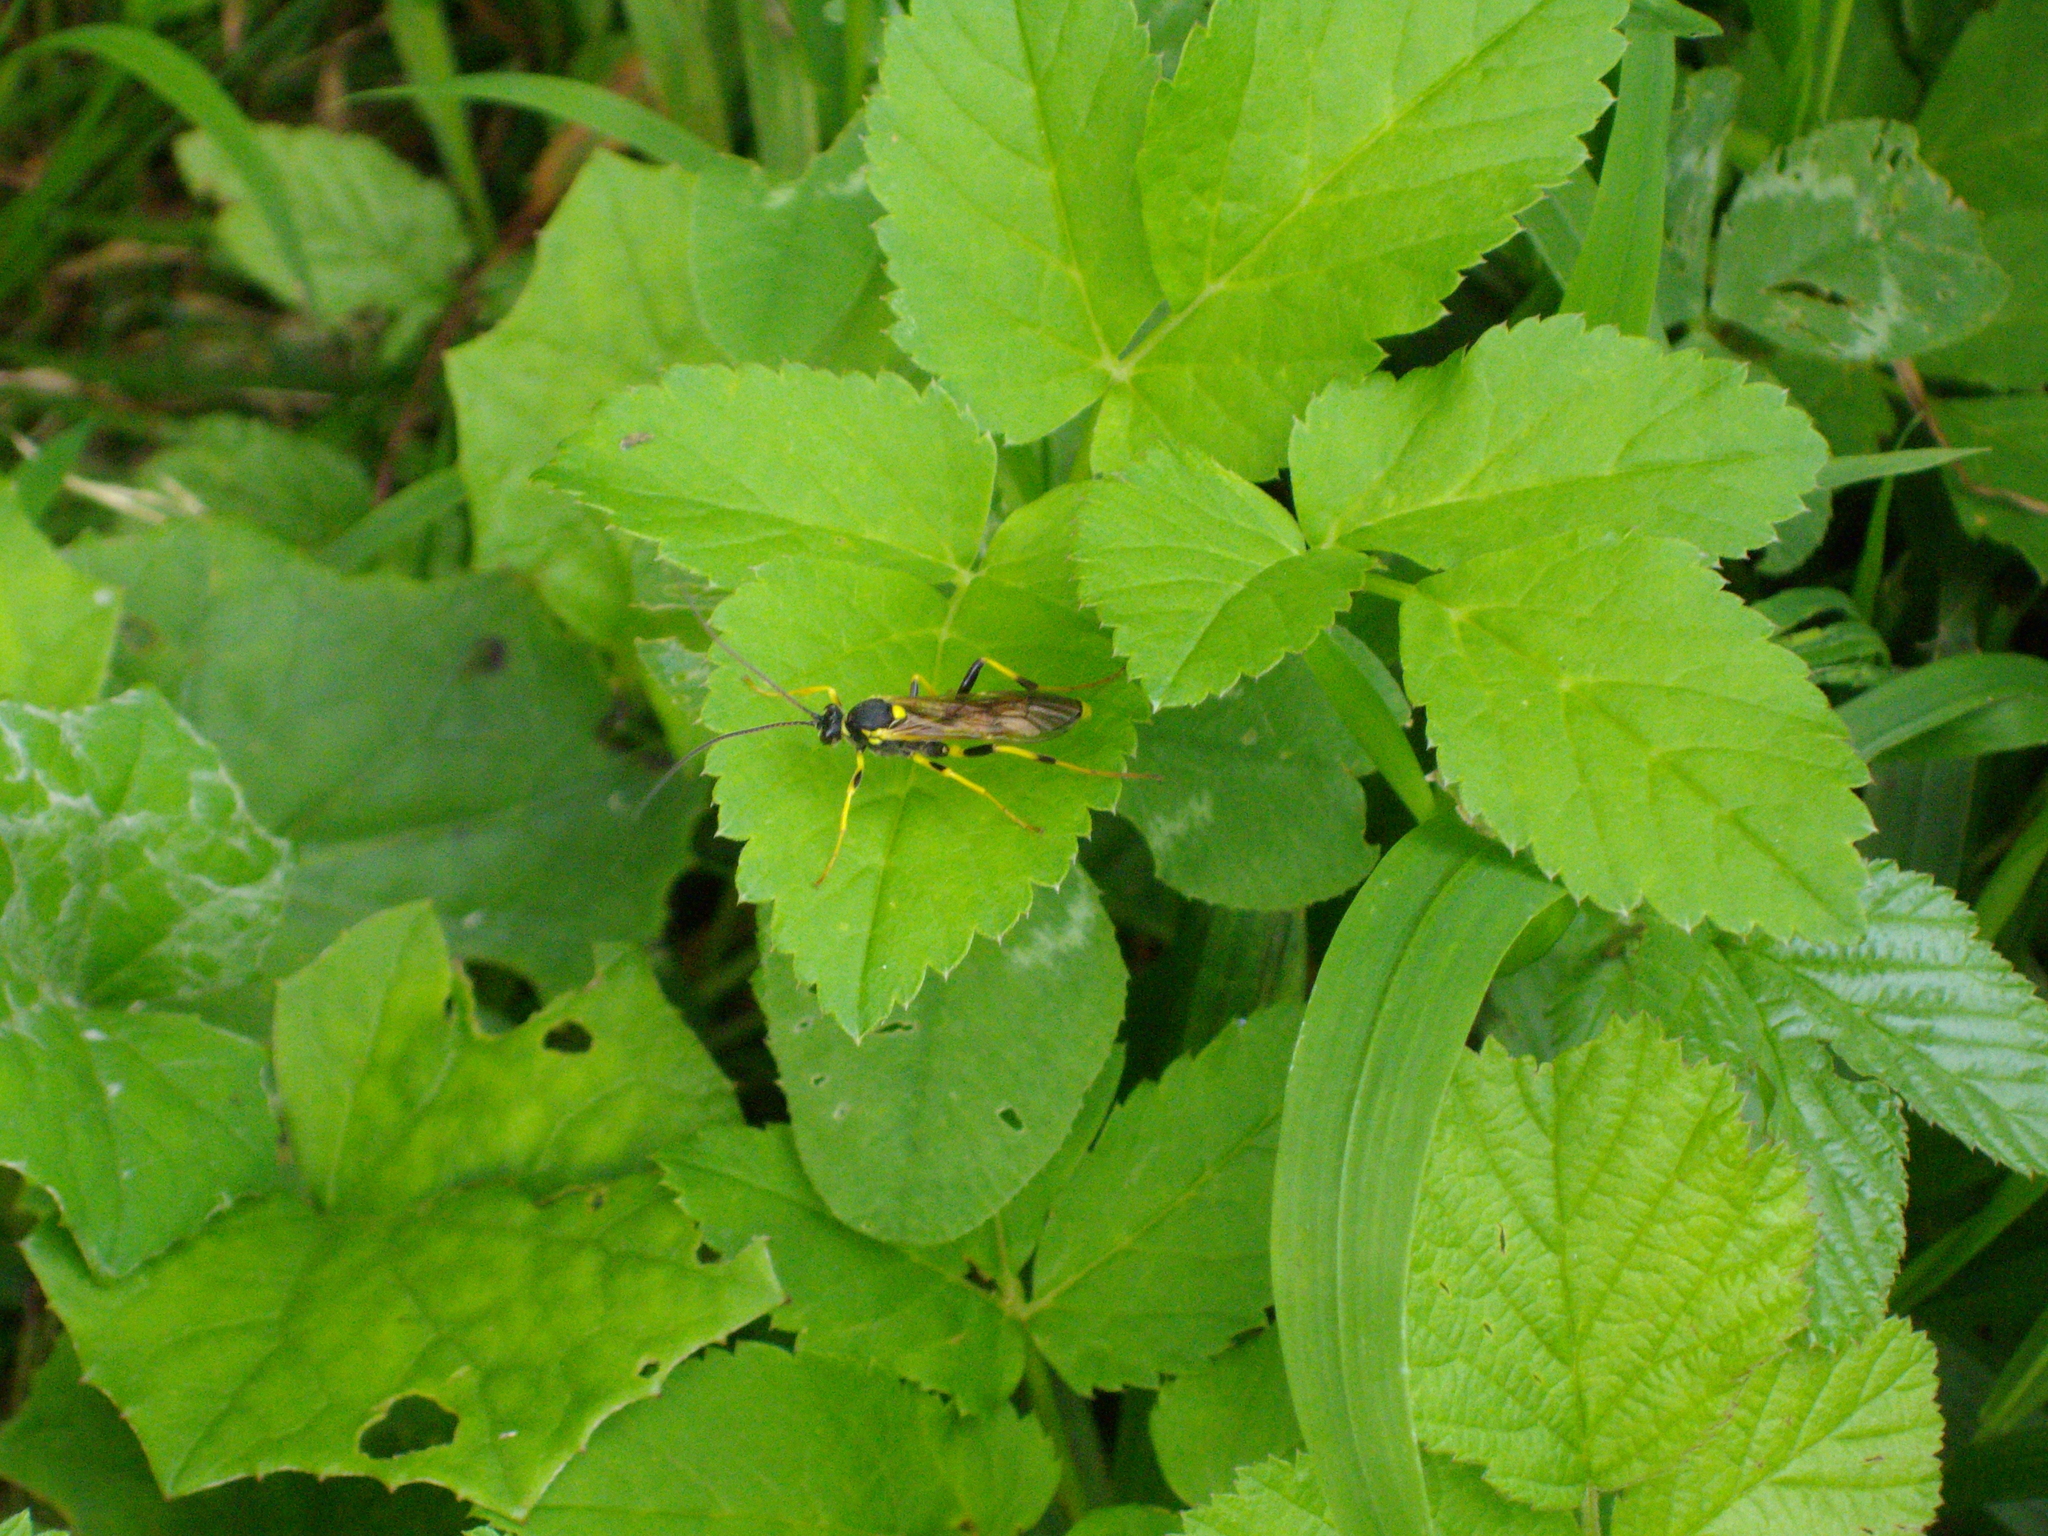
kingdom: Animalia
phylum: Arthropoda
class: Insecta
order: Hymenoptera
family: Ichneumonidae
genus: Amblyteles
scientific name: Amblyteles armatorius
